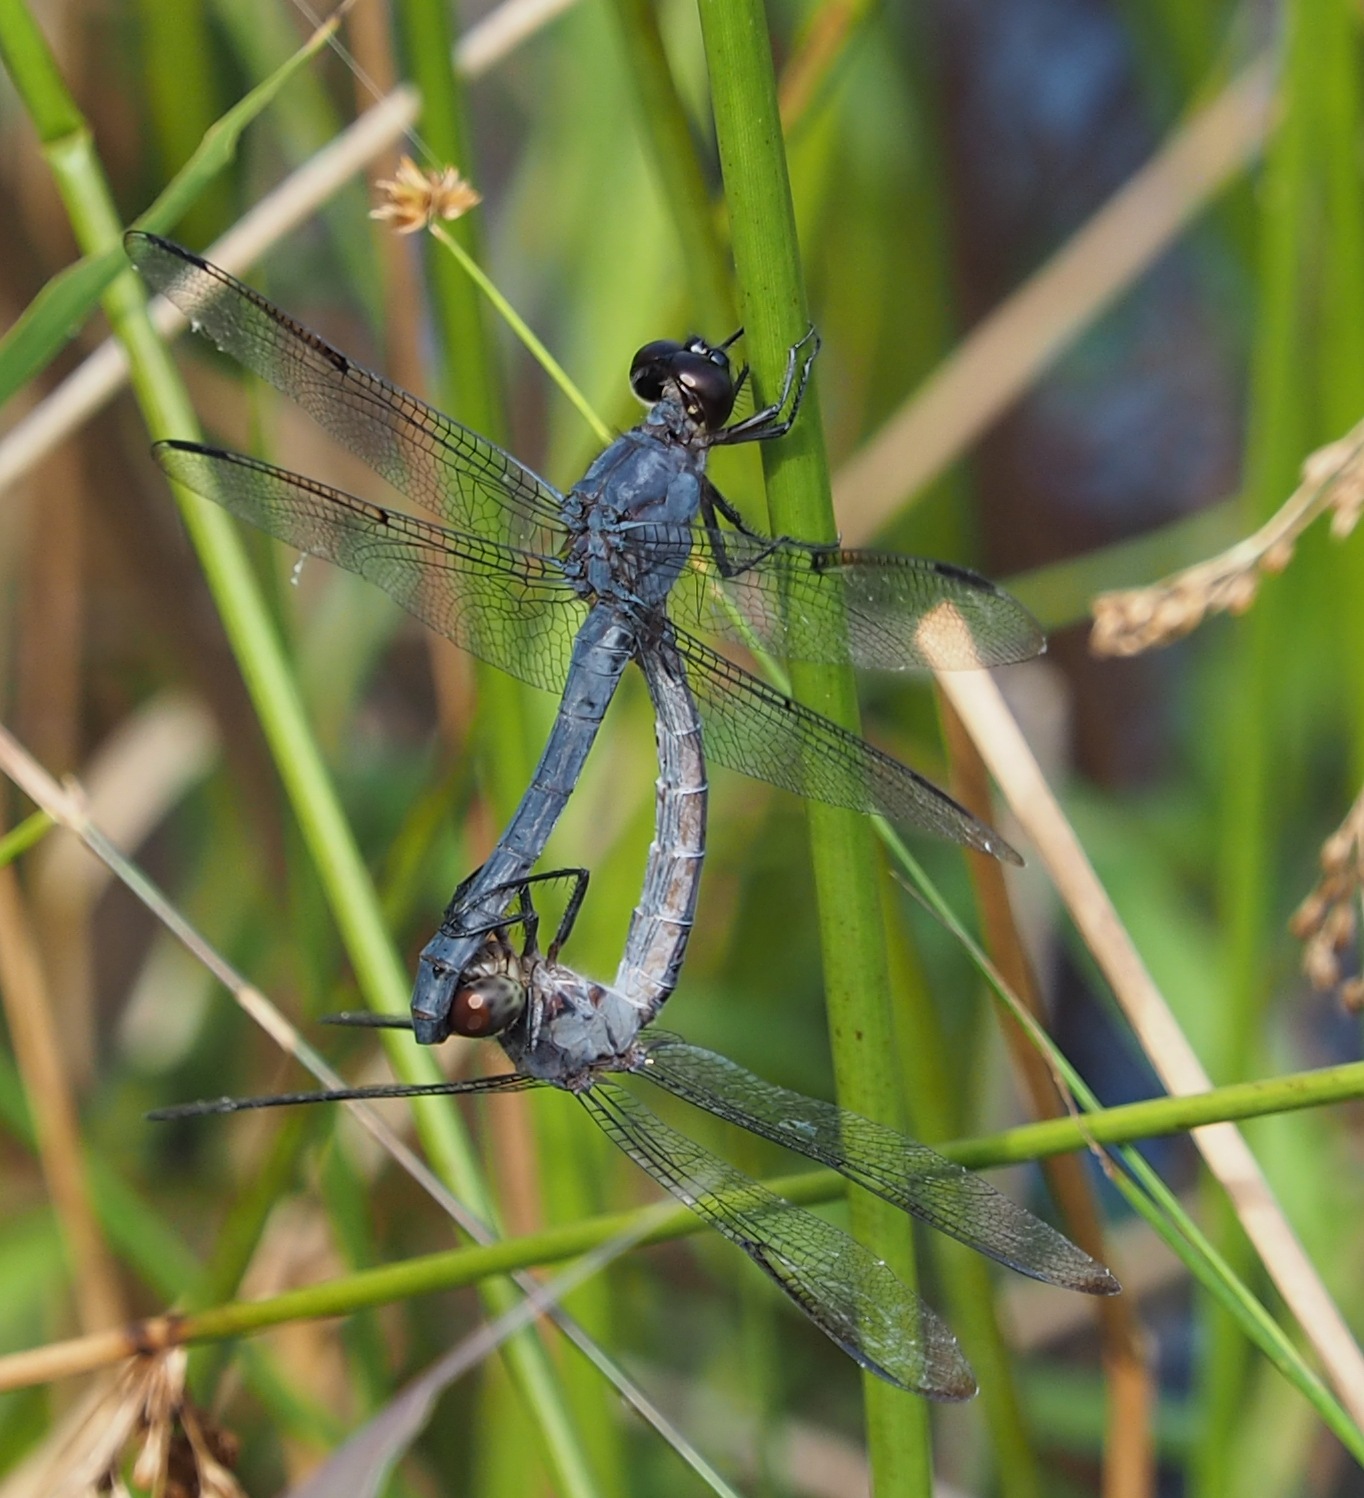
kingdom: Animalia
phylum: Arthropoda
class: Insecta
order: Odonata
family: Libellulidae
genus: Libellula
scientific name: Libellula incesta
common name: Slaty skimmer
